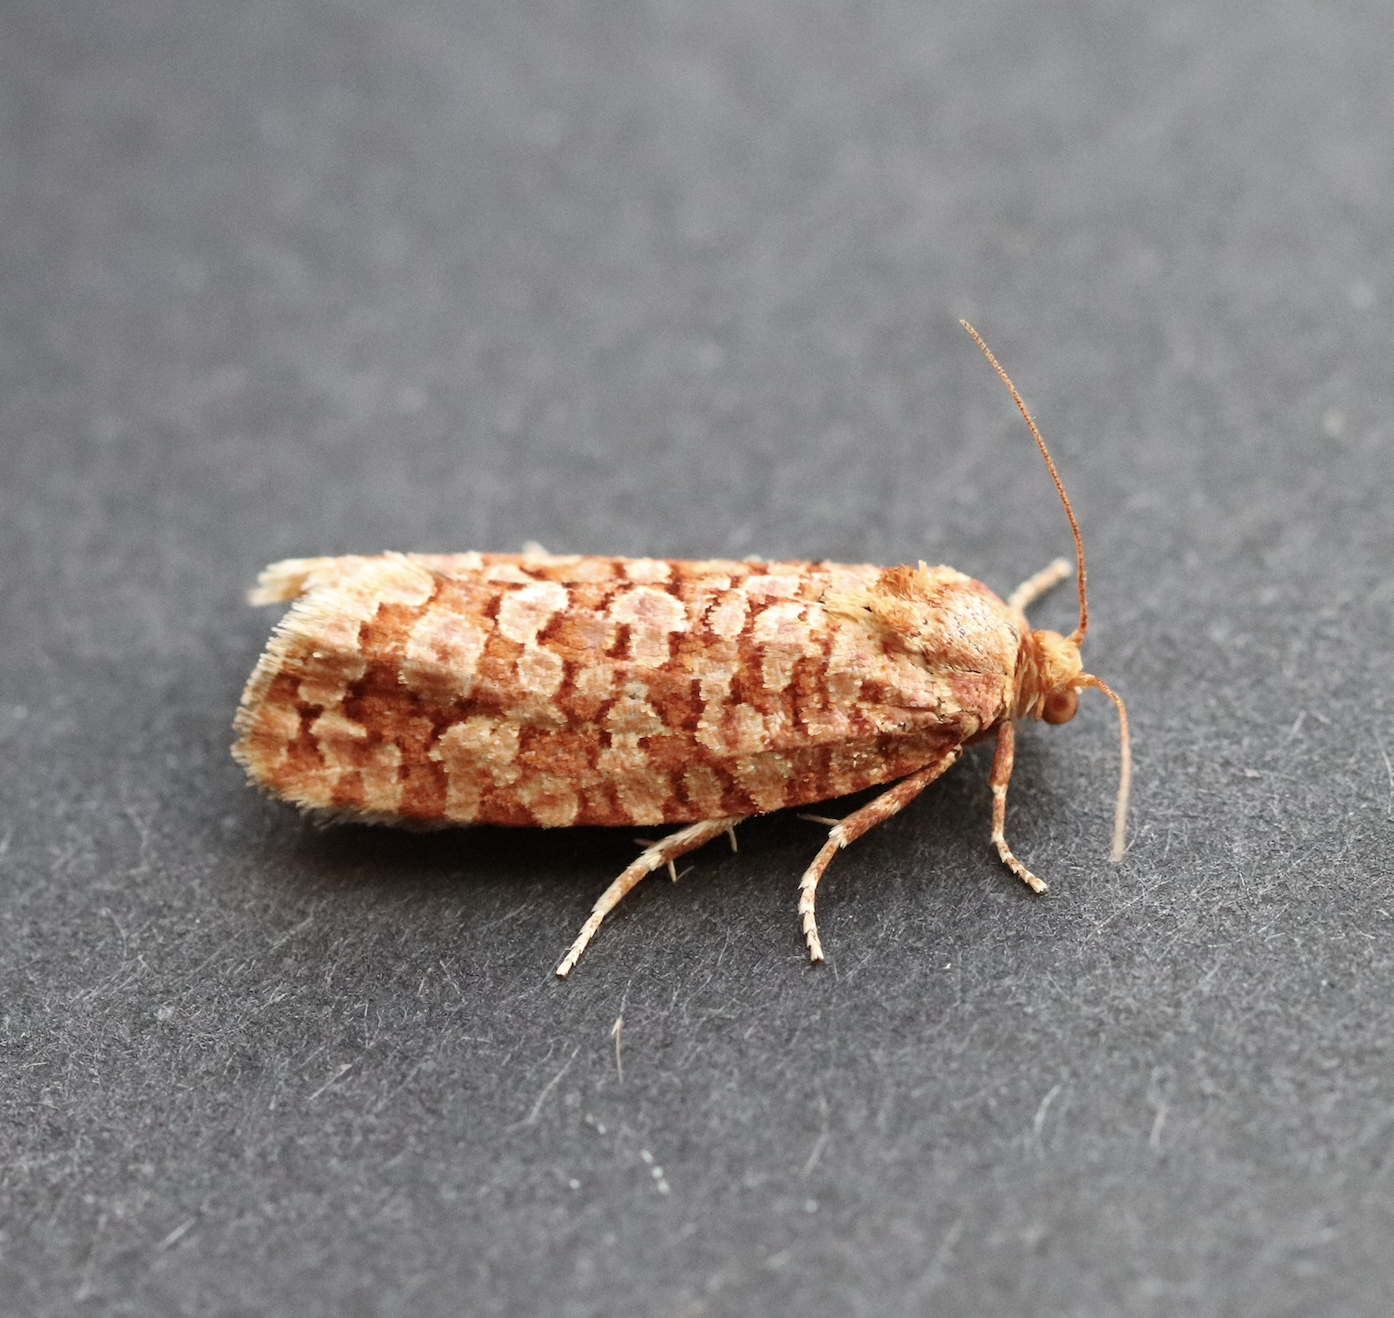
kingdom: Animalia
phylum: Arthropoda
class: Insecta
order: Lepidoptera
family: Tortricidae
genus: Lozotaeniodes
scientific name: Lozotaeniodes formosana
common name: Orange pine twist
